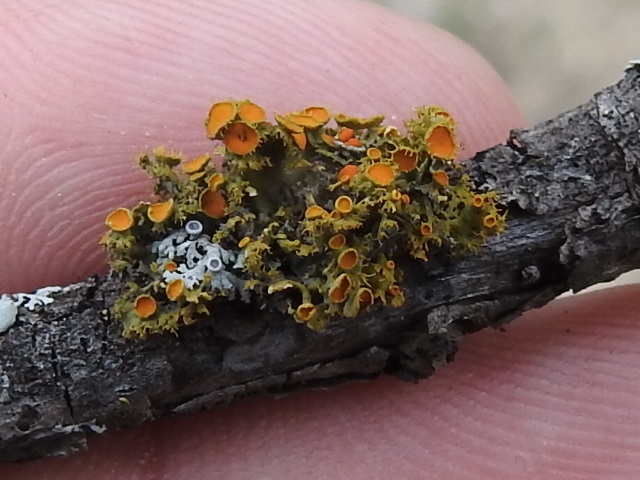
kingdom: Fungi
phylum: Ascomycota
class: Lecanoromycetes
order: Teloschistales
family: Teloschistaceae
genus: Niorma
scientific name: Niorma chrysophthalma
